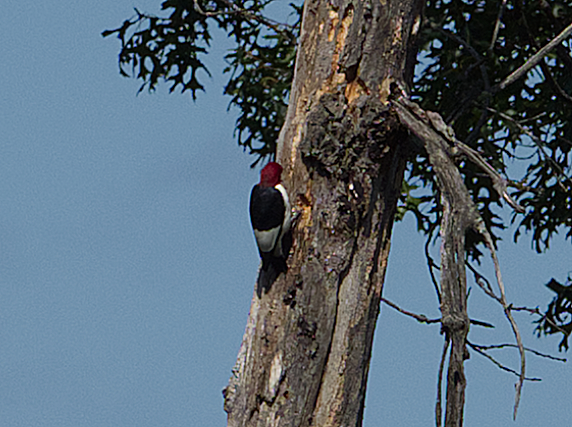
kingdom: Animalia
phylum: Chordata
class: Aves
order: Piciformes
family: Picidae
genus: Melanerpes
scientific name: Melanerpes erythrocephalus
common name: Red-headed woodpecker
